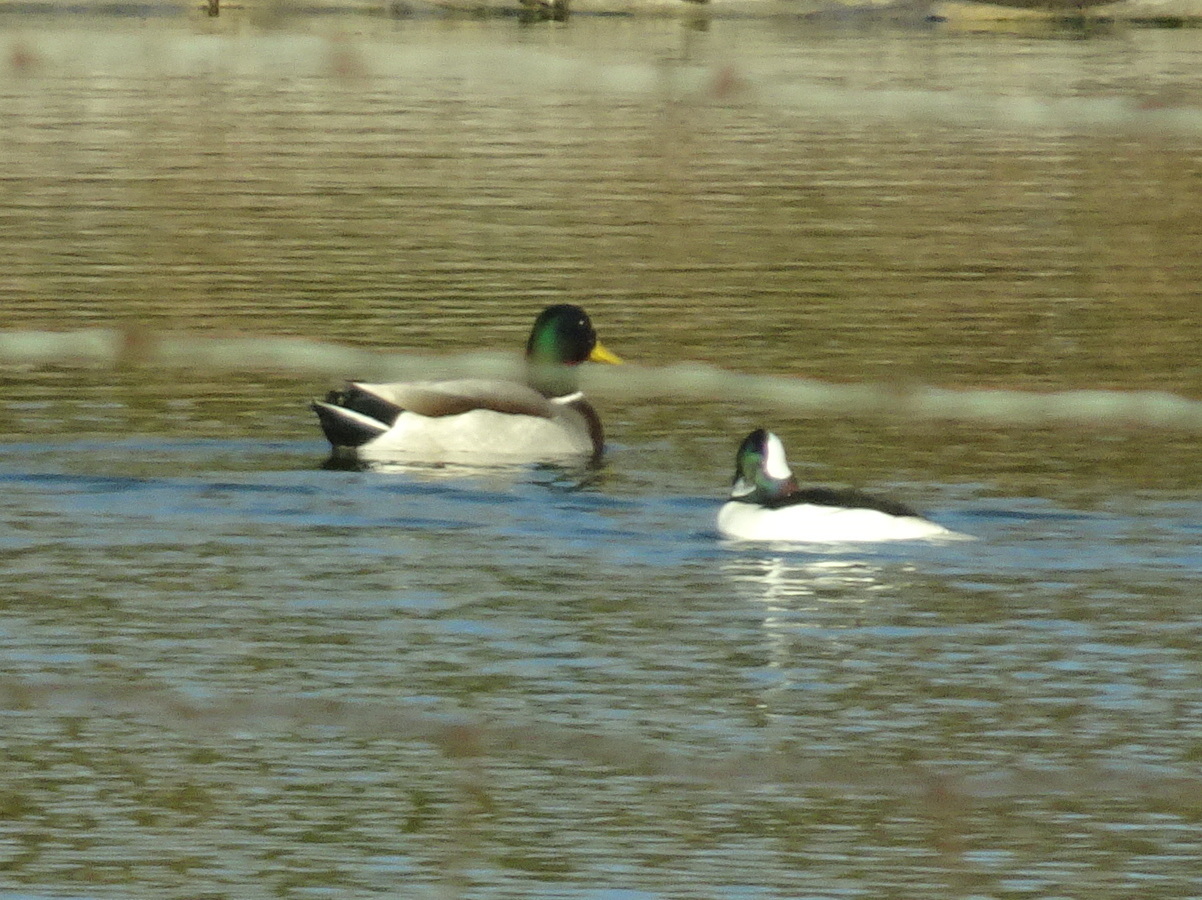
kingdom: Animalia
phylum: Chordata
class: Aves
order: Anseriformes
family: Anatidae
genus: Bucephala
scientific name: Bucephala albeola
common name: Bufflehead
